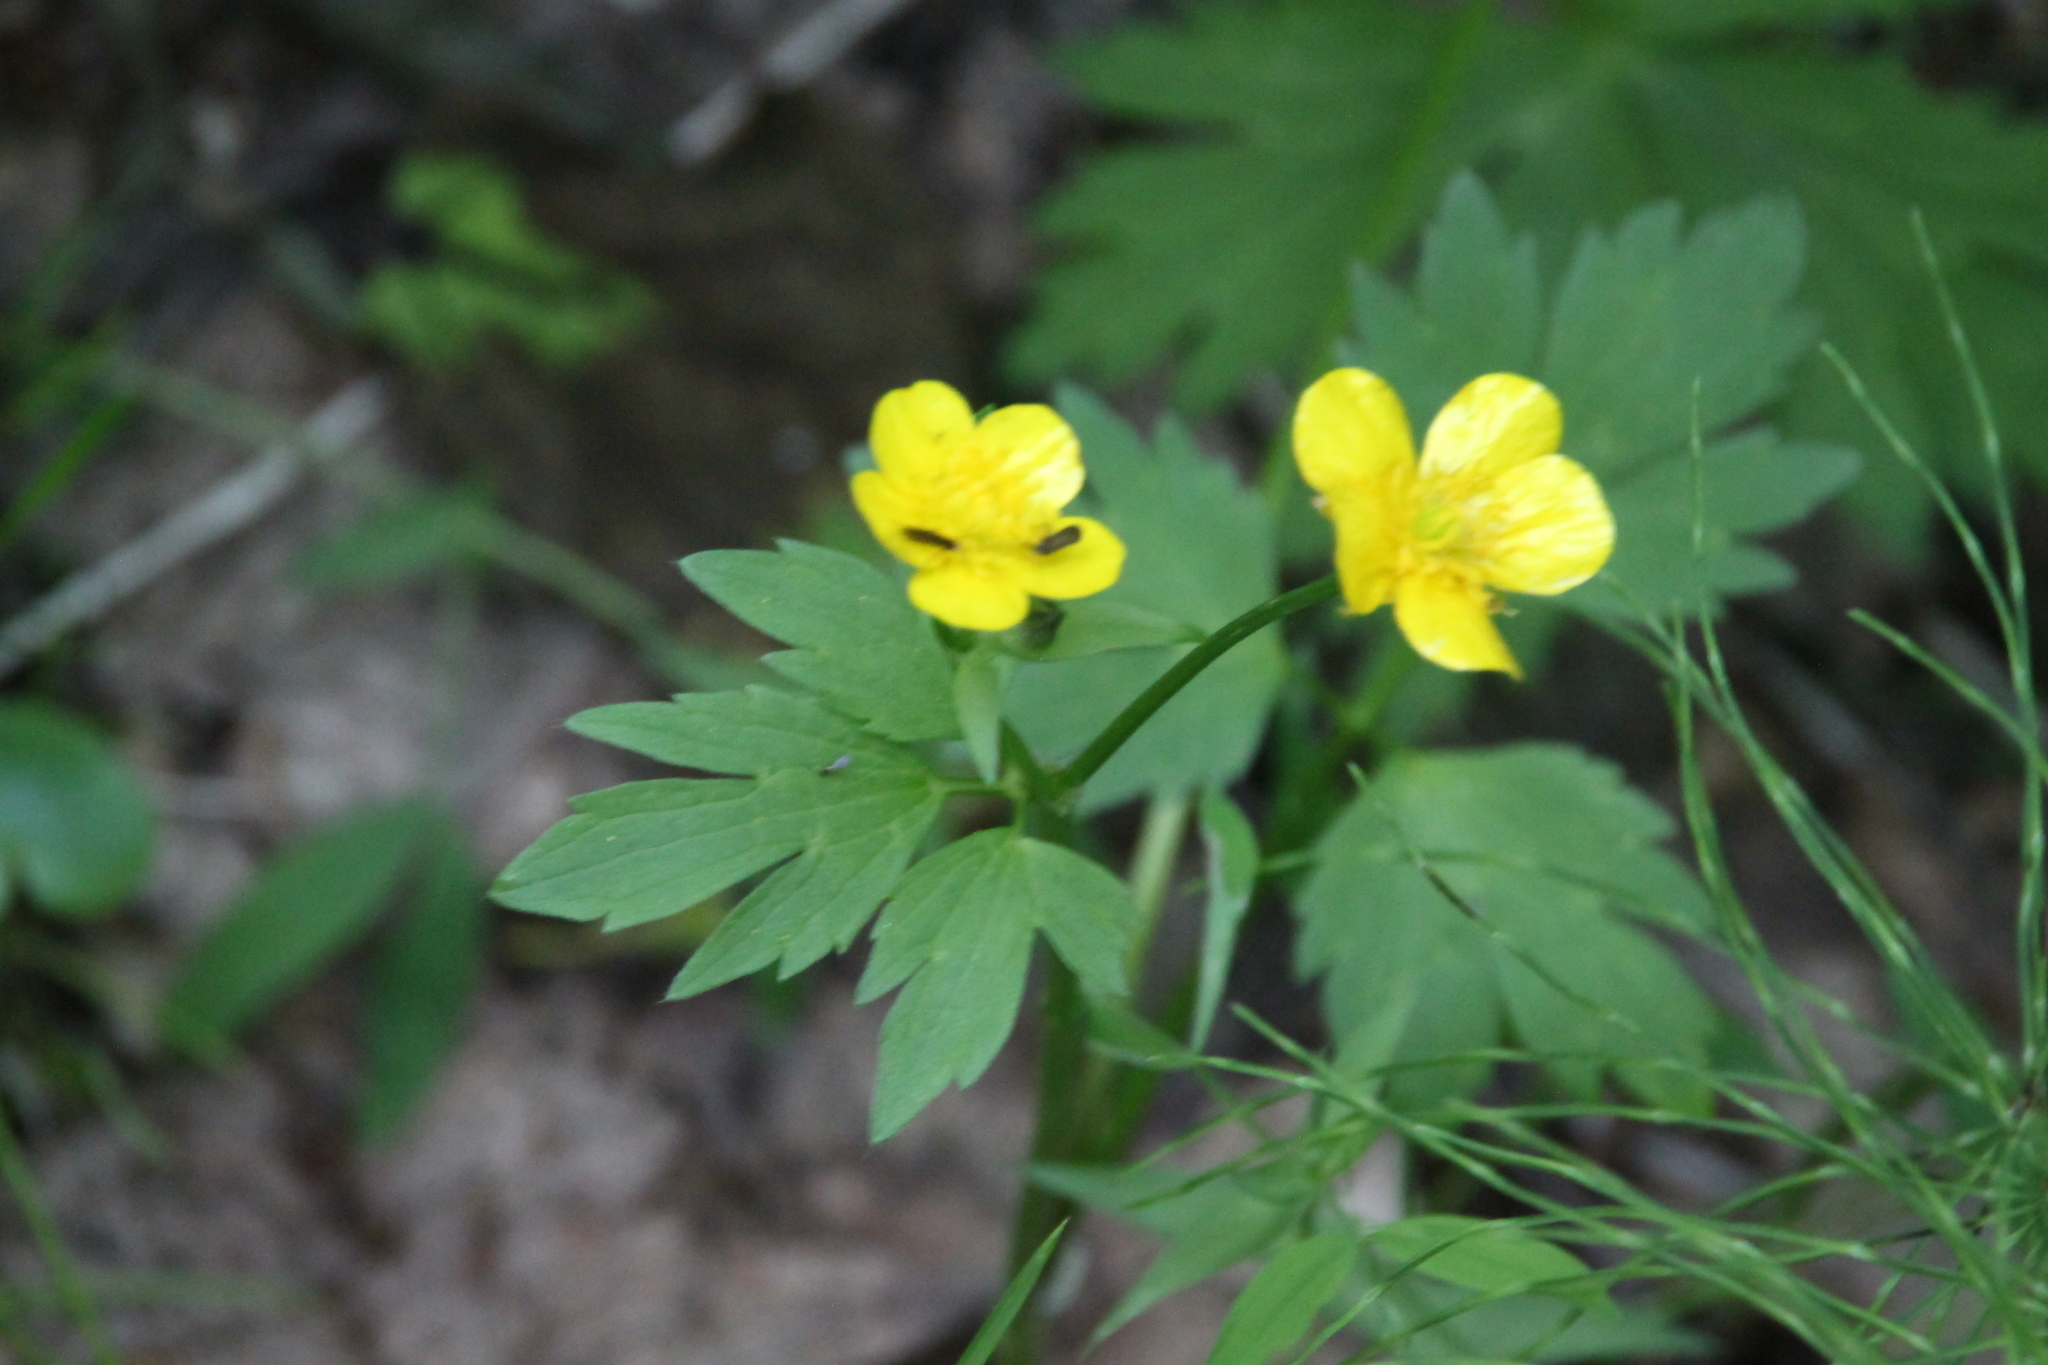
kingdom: Plantae
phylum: Tracheophyta
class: Magnoliopsida
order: Ranunculales
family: Ranunculaceae
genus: Ranunculus
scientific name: Ranunculus repens
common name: Creeping buttercup
